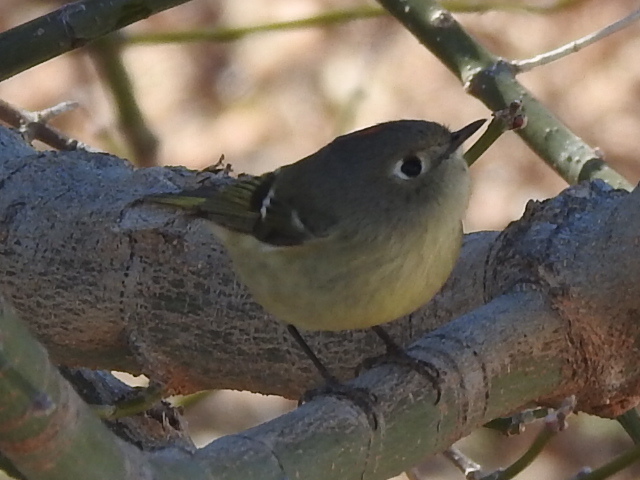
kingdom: Animalia
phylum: Chordata
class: Aves
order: Passeriformes
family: Regulidae
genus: Regulus
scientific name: Regulus calendula
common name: Ruby-crowned kinglet
